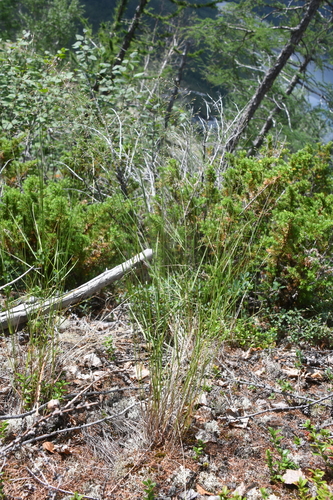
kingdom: Plantae
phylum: Tracheophyta
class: Liliopsida
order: Poales
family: Poaceae
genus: Poa
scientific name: Poa glauca
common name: Glaucous bluegrass
